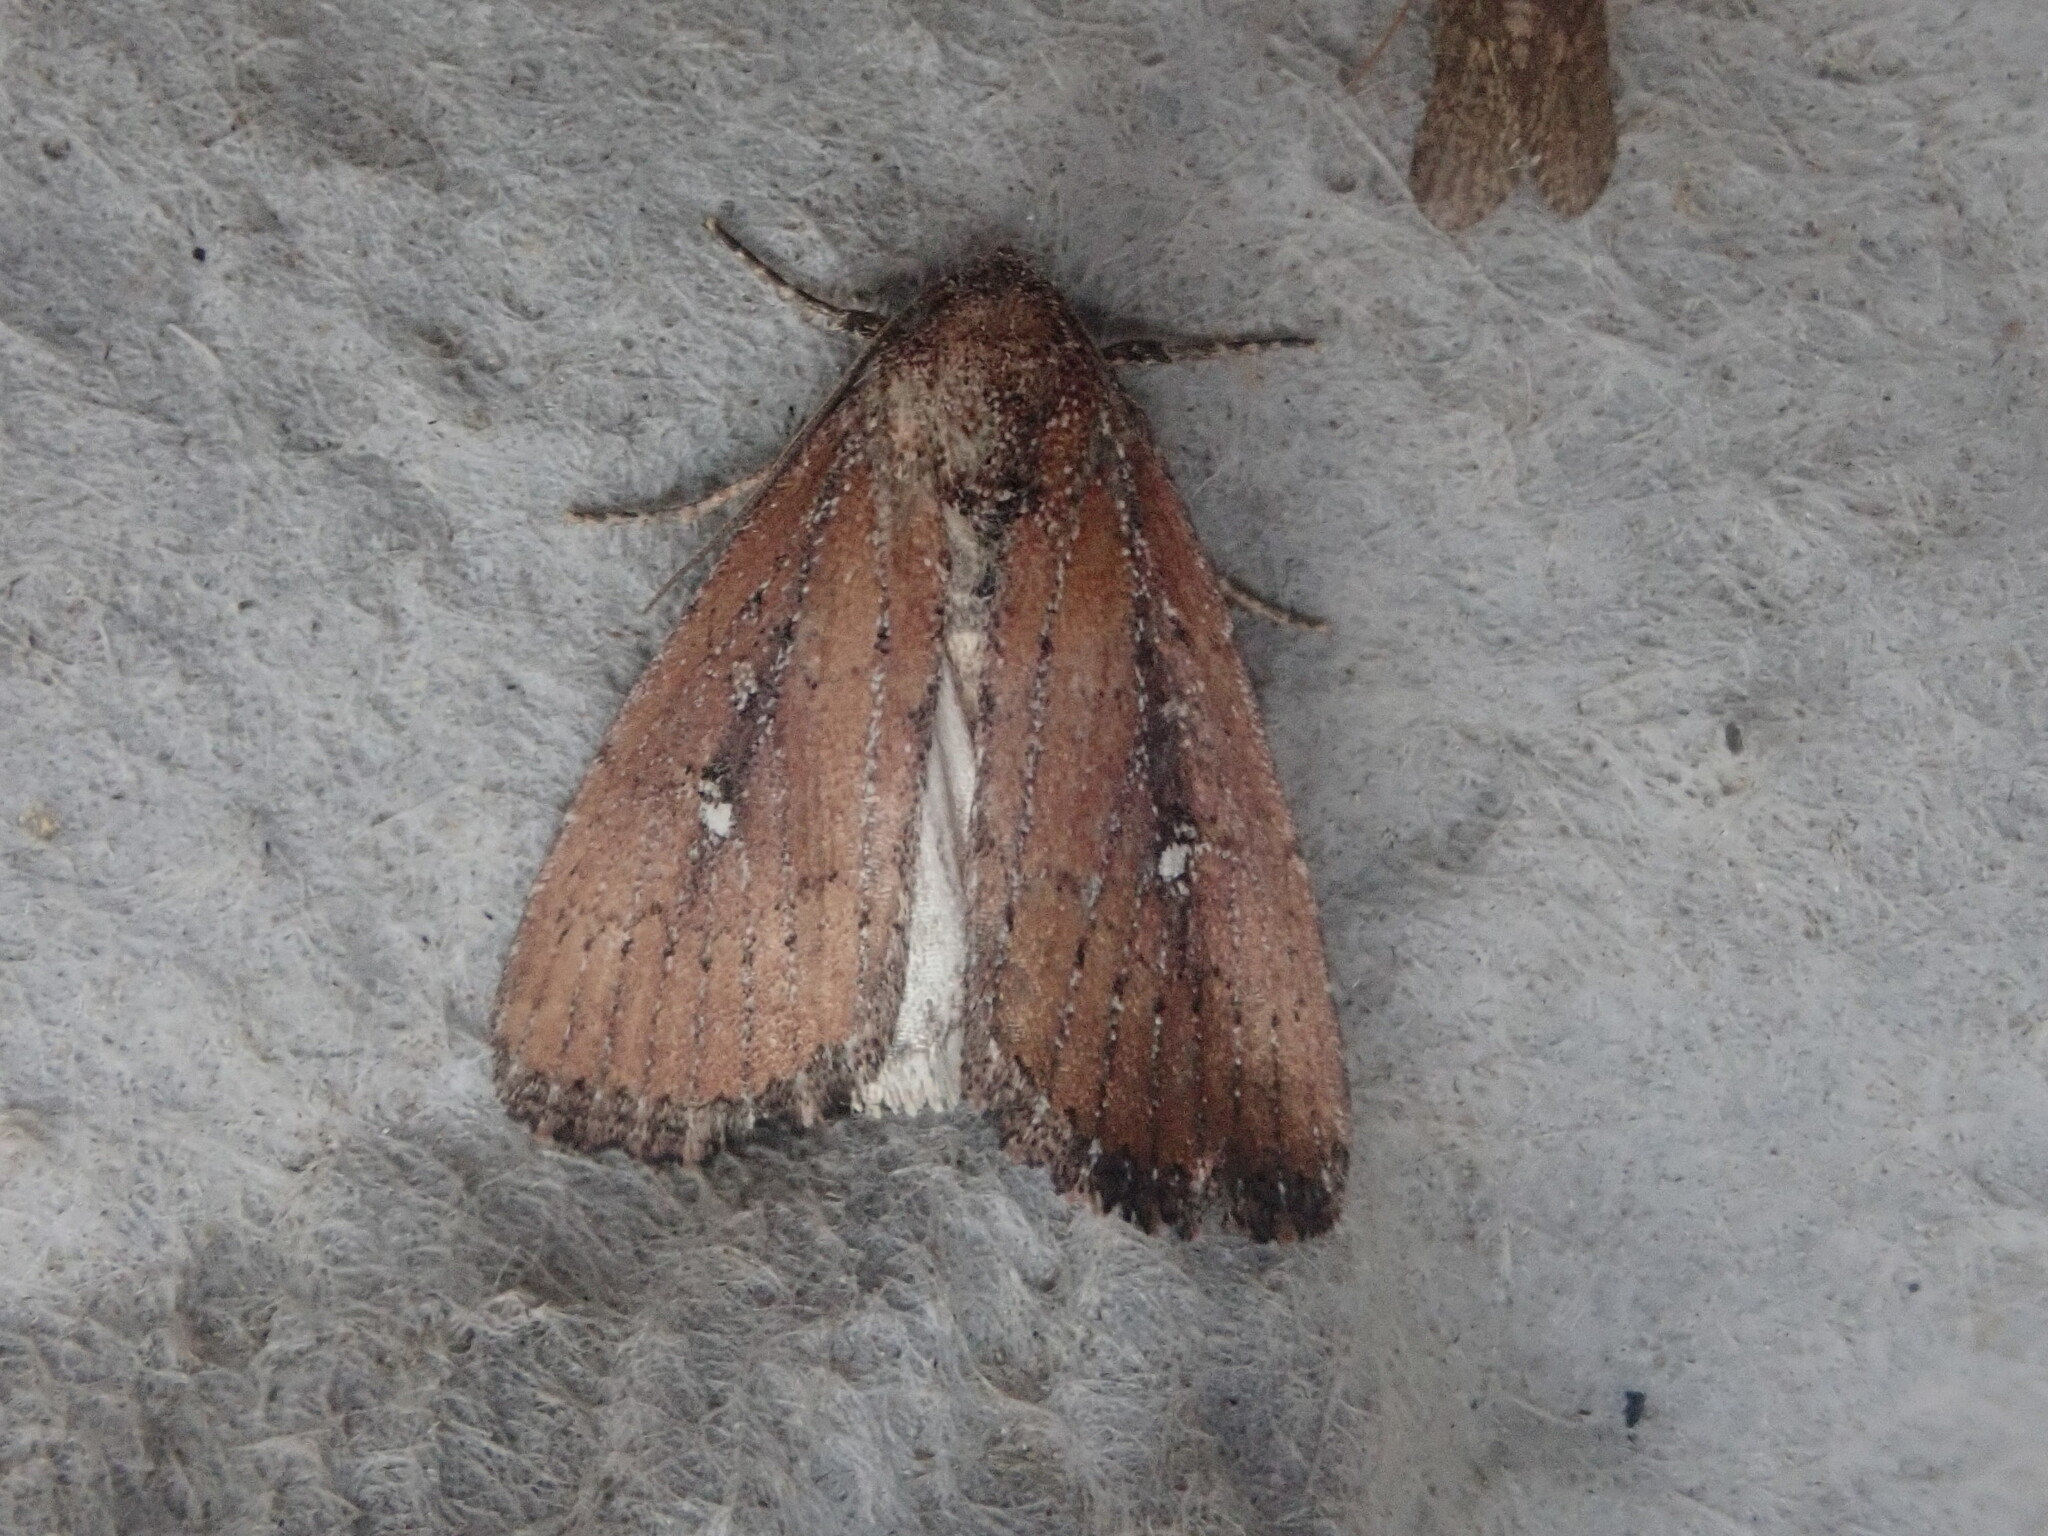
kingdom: Animalia
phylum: Arthropoda
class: Insecta
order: Lepidoptera
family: Noctuidae
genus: Condica
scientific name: Condica videns
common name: White-dotted groundling
